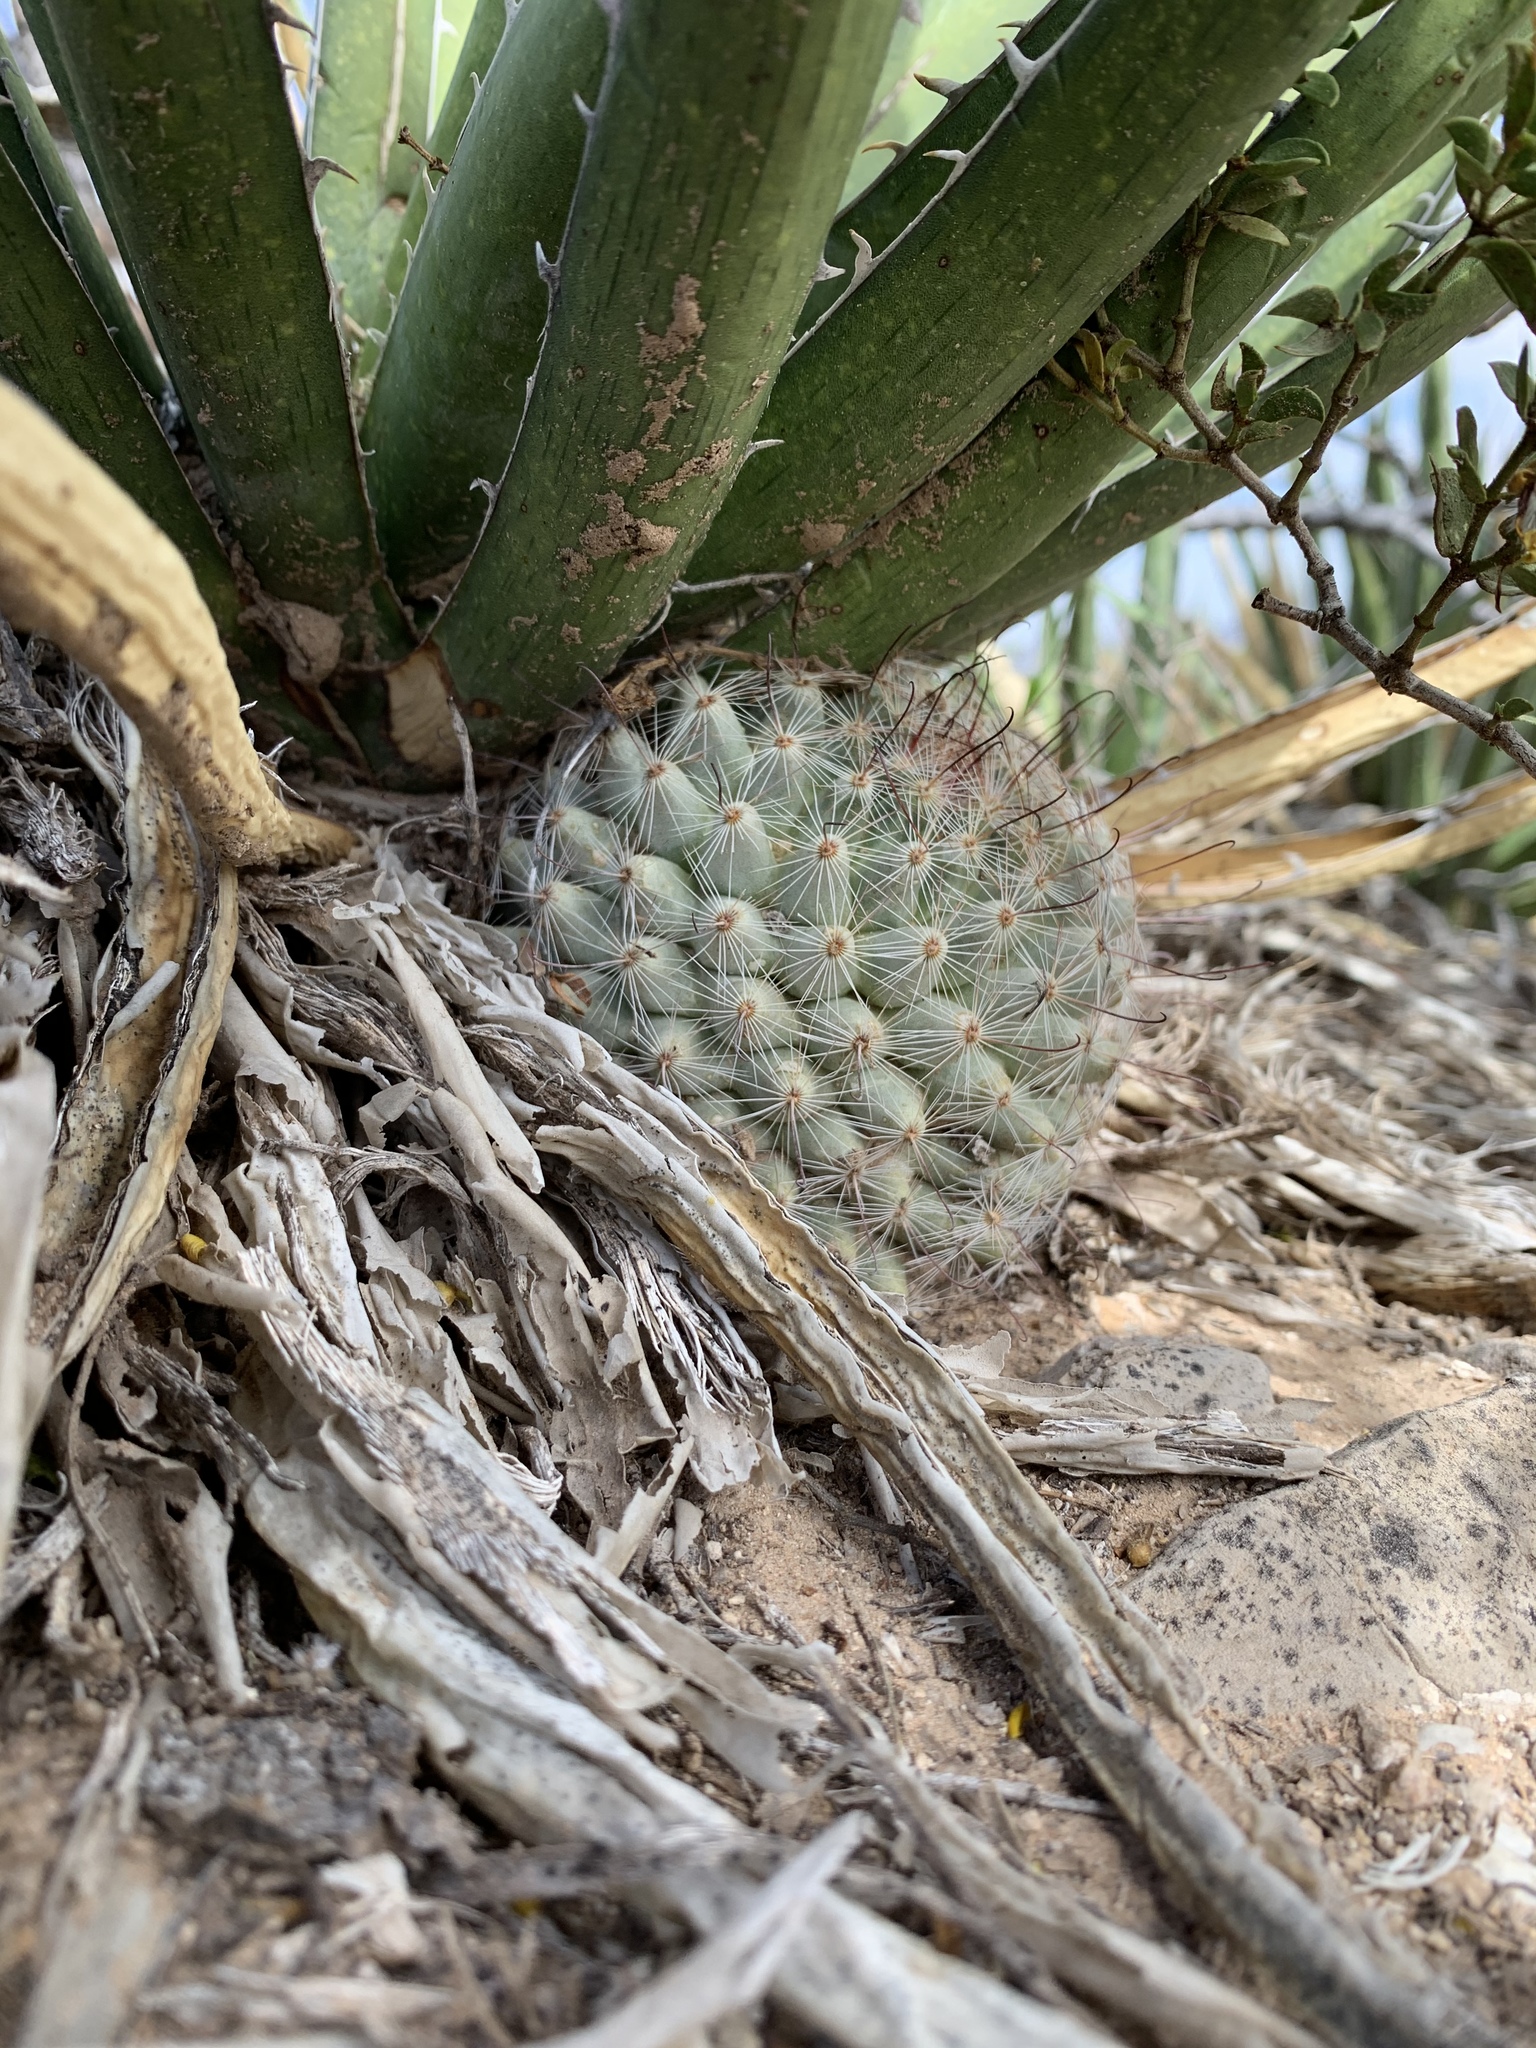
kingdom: Plantae
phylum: Tracheophyta
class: Magnoliopsida
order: Caryophyllales
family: Cactaceae
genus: Cochemiea
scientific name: Cochemiea grahamii
